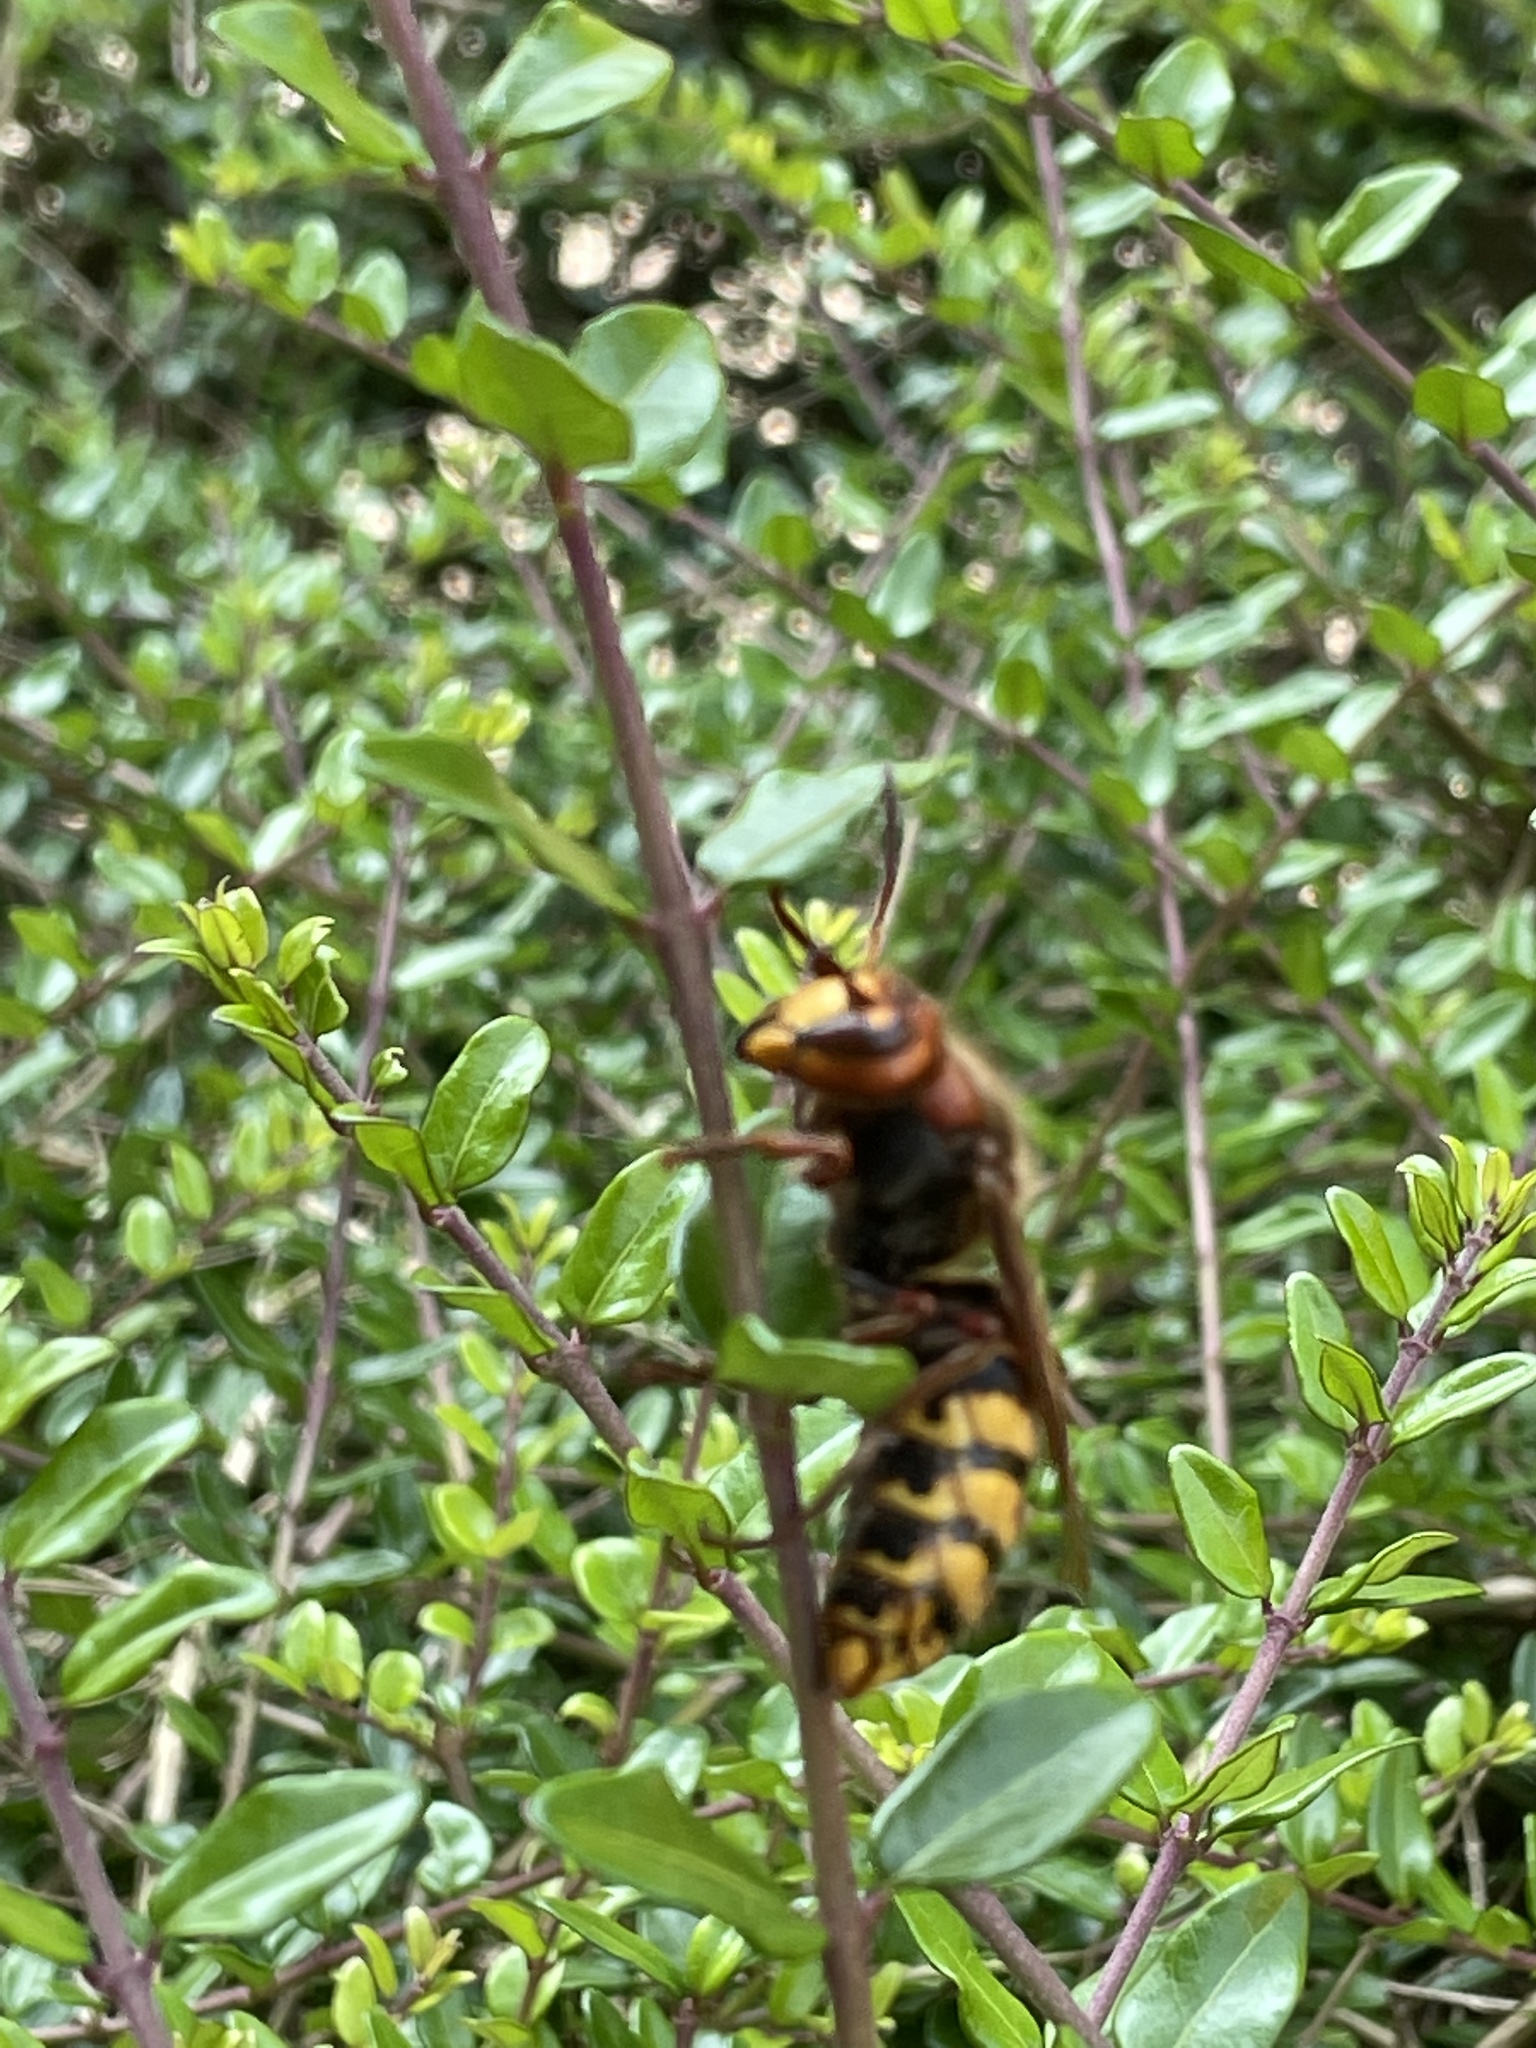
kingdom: Animalia
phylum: Arthropoda
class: Insecta
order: Hymenoptera
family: Vespidae
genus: Vespa
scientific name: Vespa crabro
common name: Hornet
